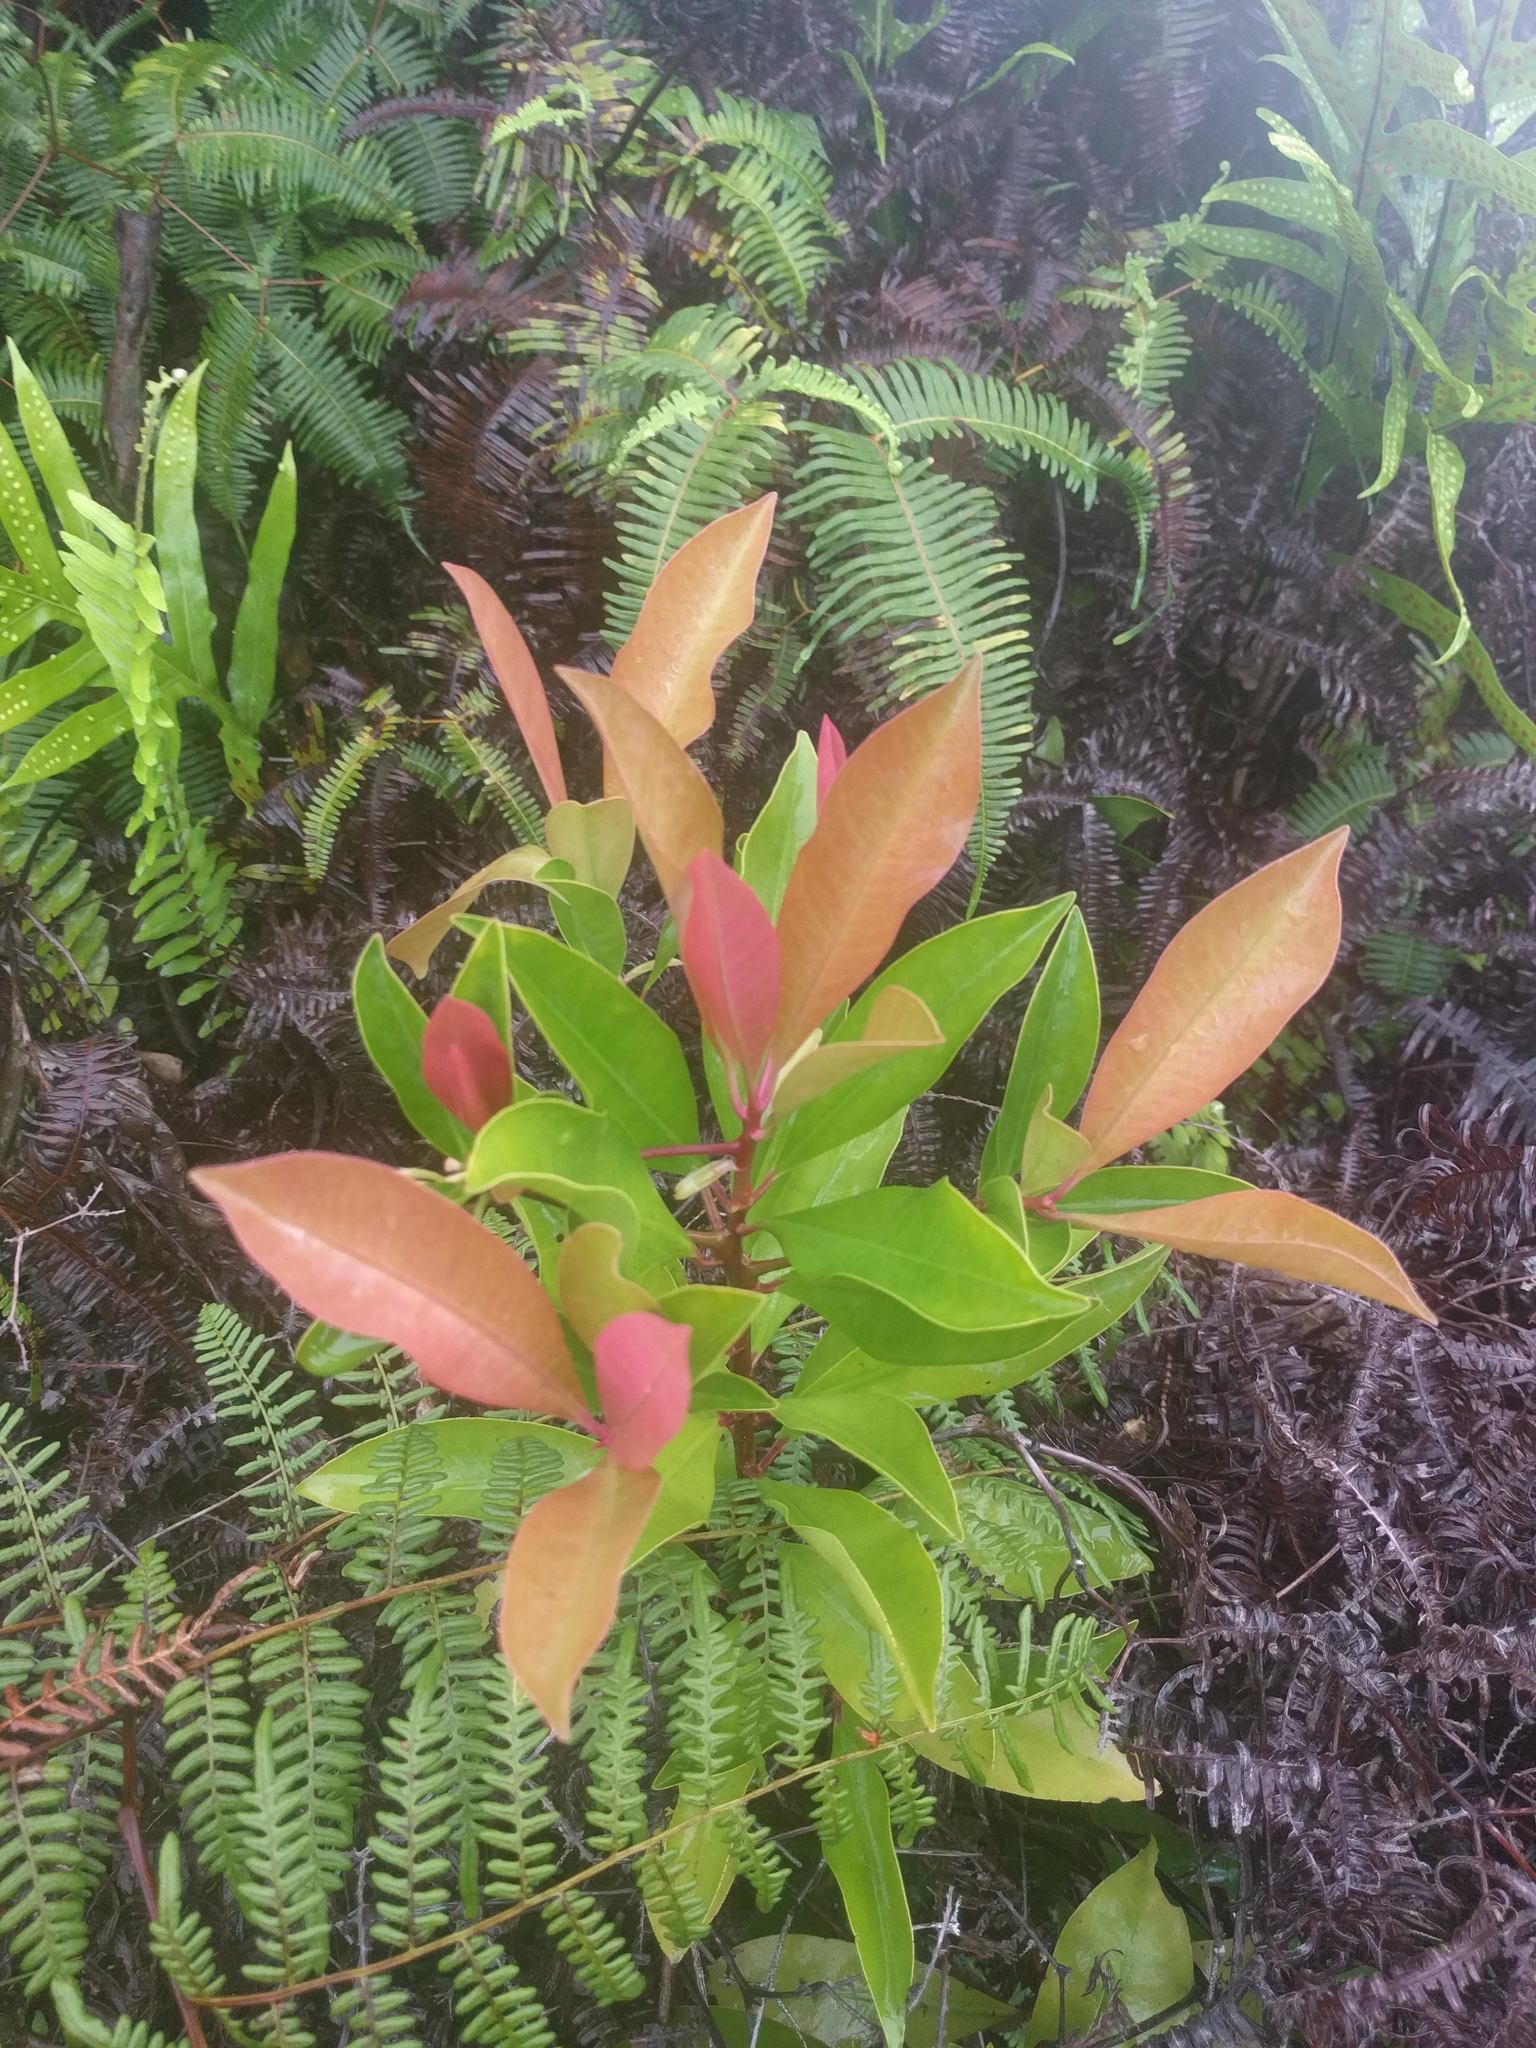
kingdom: Plantae
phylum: Tracheophyta
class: Magnoliopsida
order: Ericales
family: Primulaceae
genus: Ardisia
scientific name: Ardisia elliptica
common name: Shoebutton
